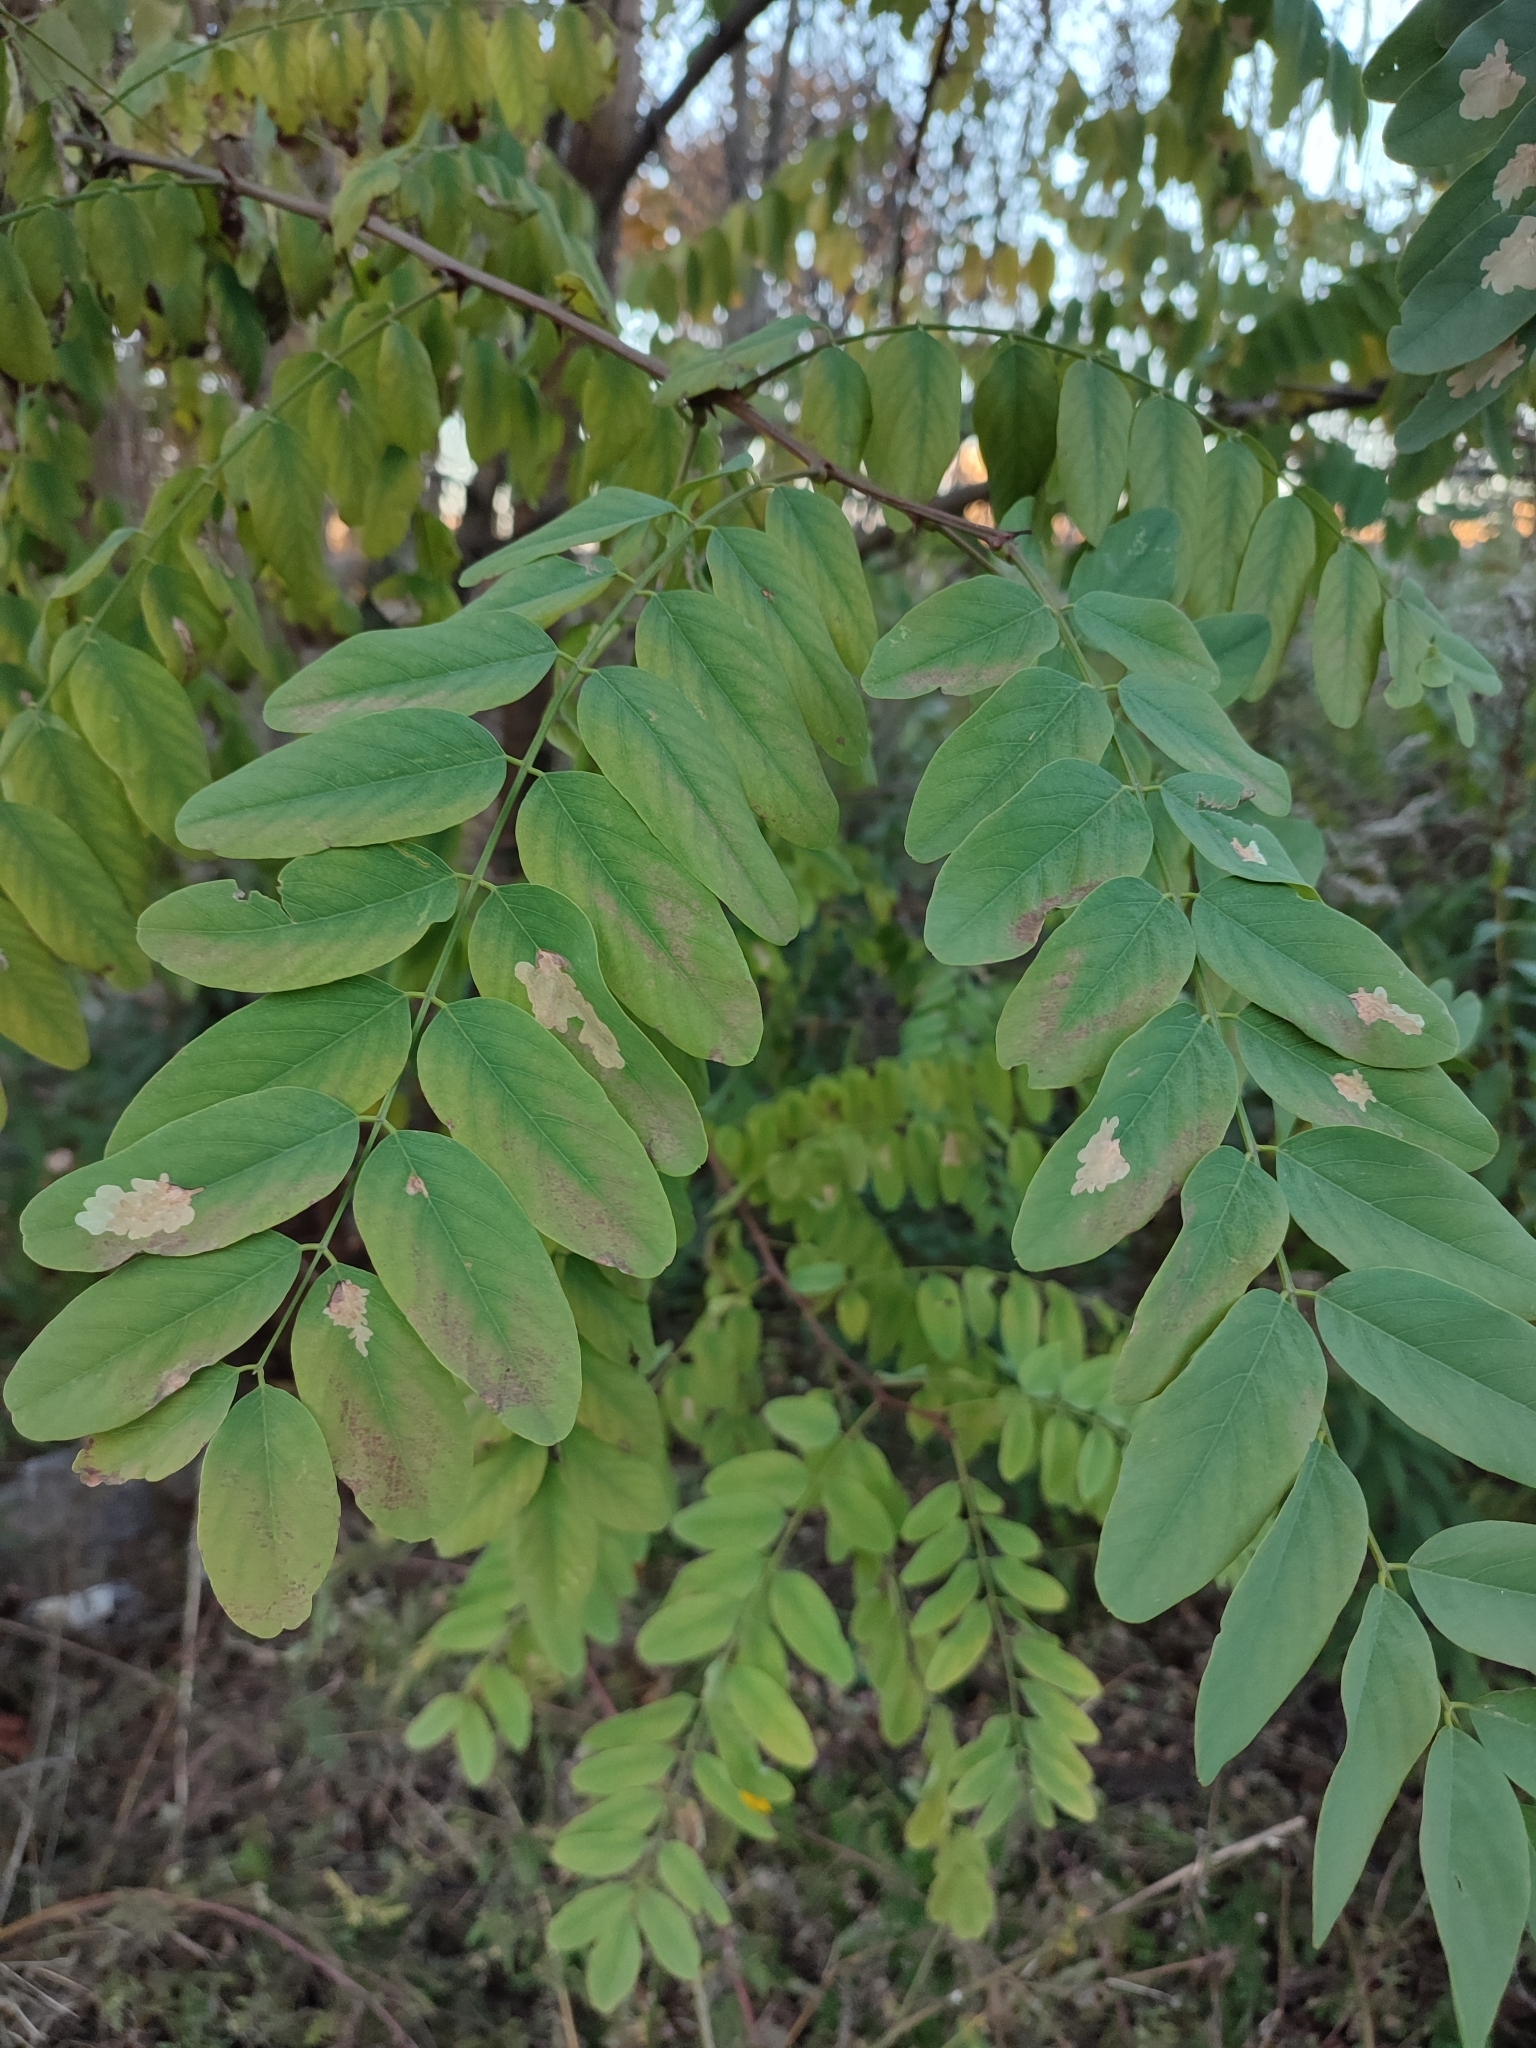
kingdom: Animalia
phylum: Arthropoda
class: Insecta
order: Lepidoptera
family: Gracillariidae
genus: Parectopa
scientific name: Parectopa robiniella
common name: Locust digitate leafminer
